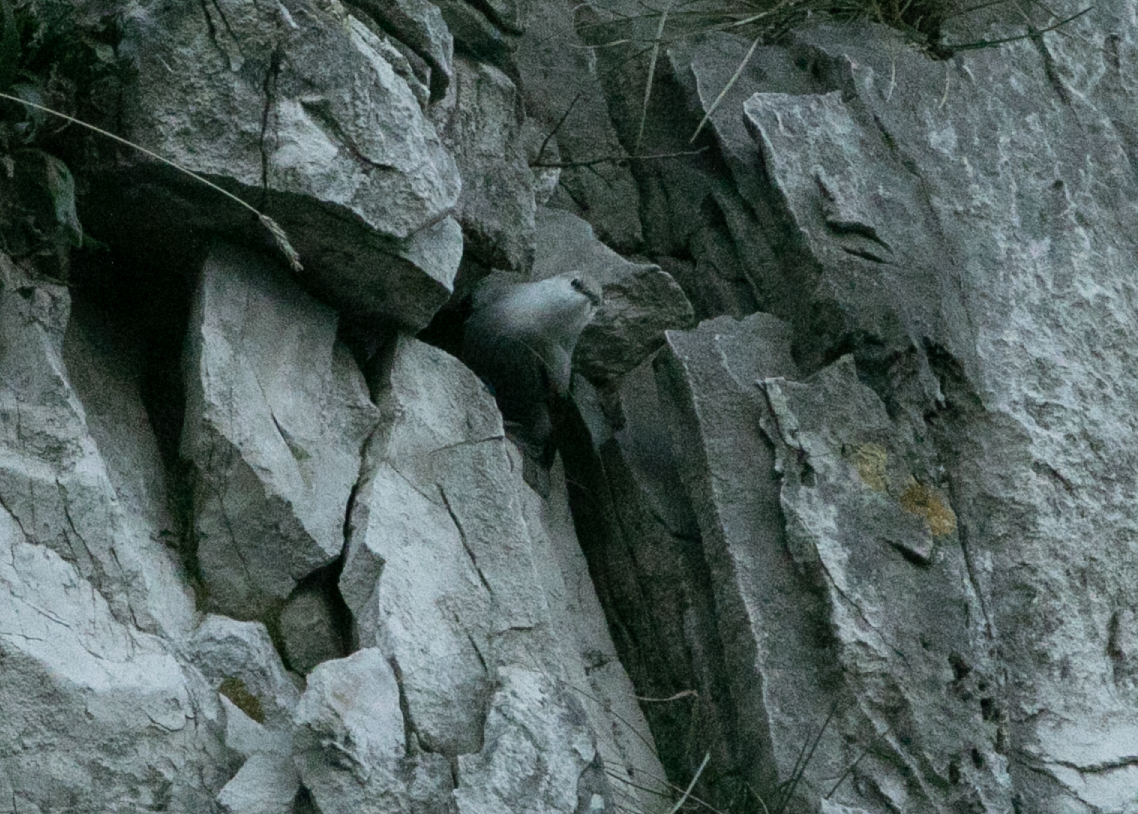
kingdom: Animalia
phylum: Chordata
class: Aves
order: Passeriformes
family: Tichodromidae
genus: Tichodroma
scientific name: Tichodroma muraria
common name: Wallcreeper
